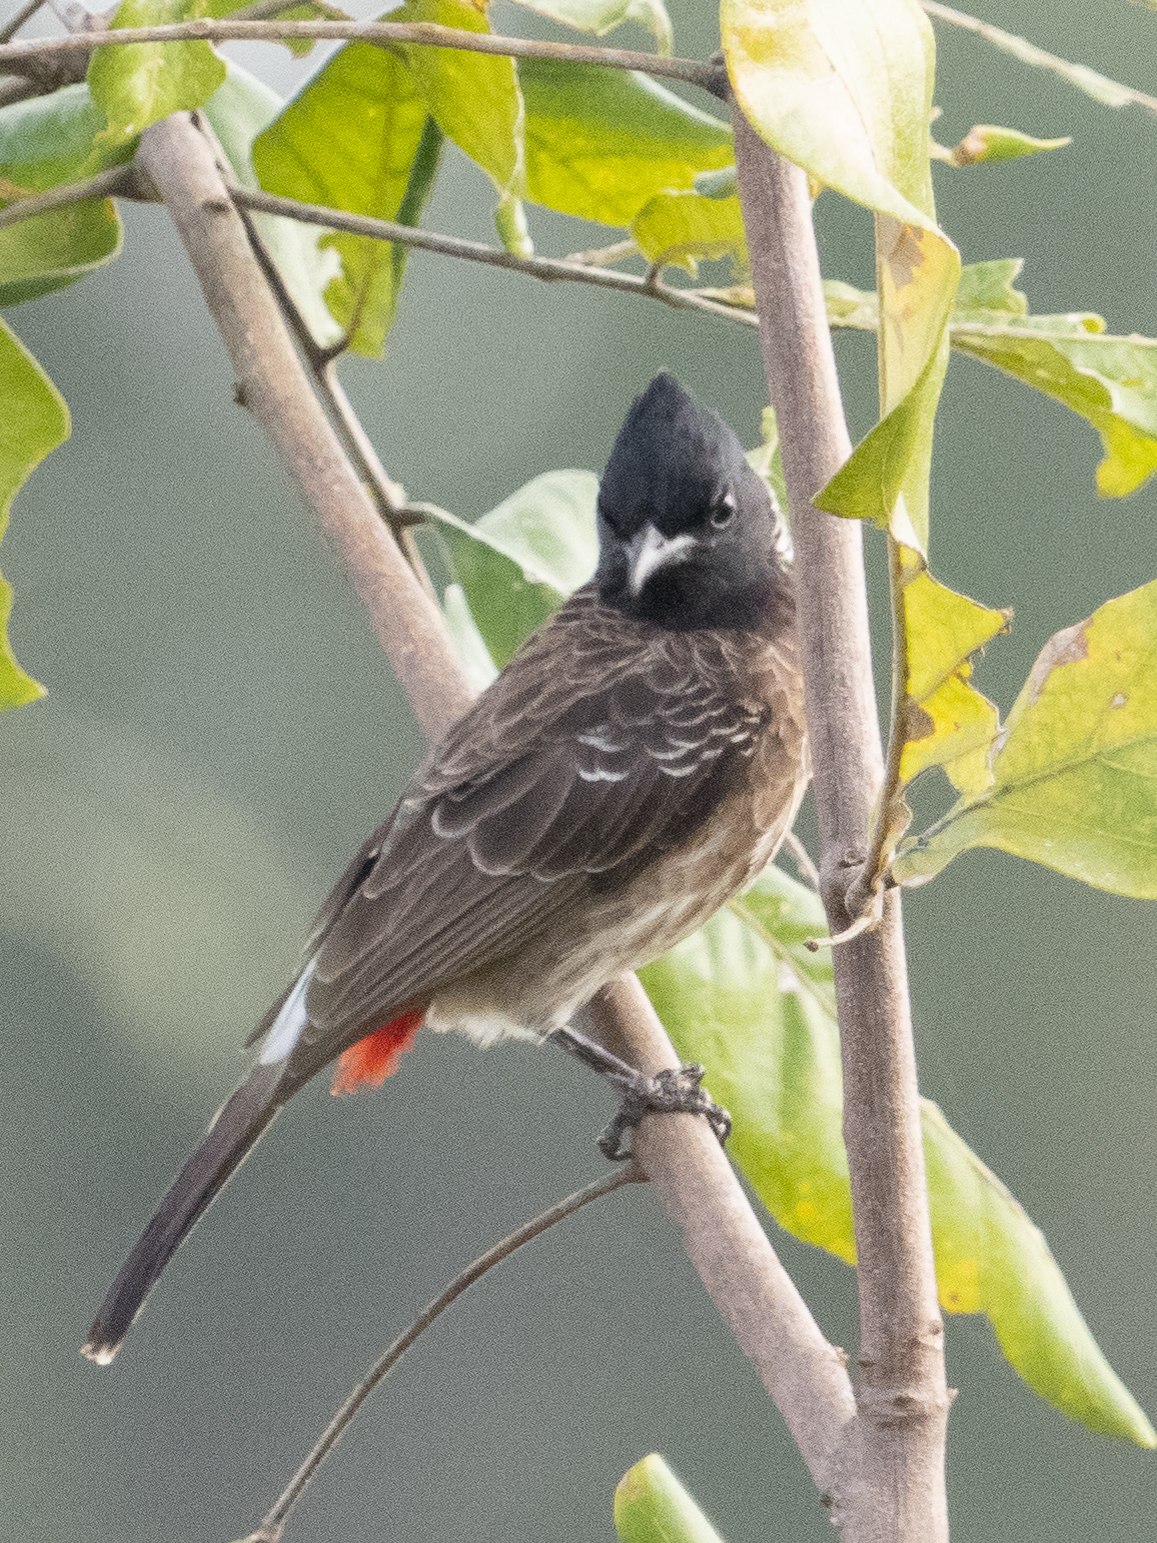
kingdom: Animalia
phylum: Chordata
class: Aves
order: Passeriformes
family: Pycnonotidae
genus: Pycnonotus
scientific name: Pycnonotus cafer
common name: Red-vented bulbul
